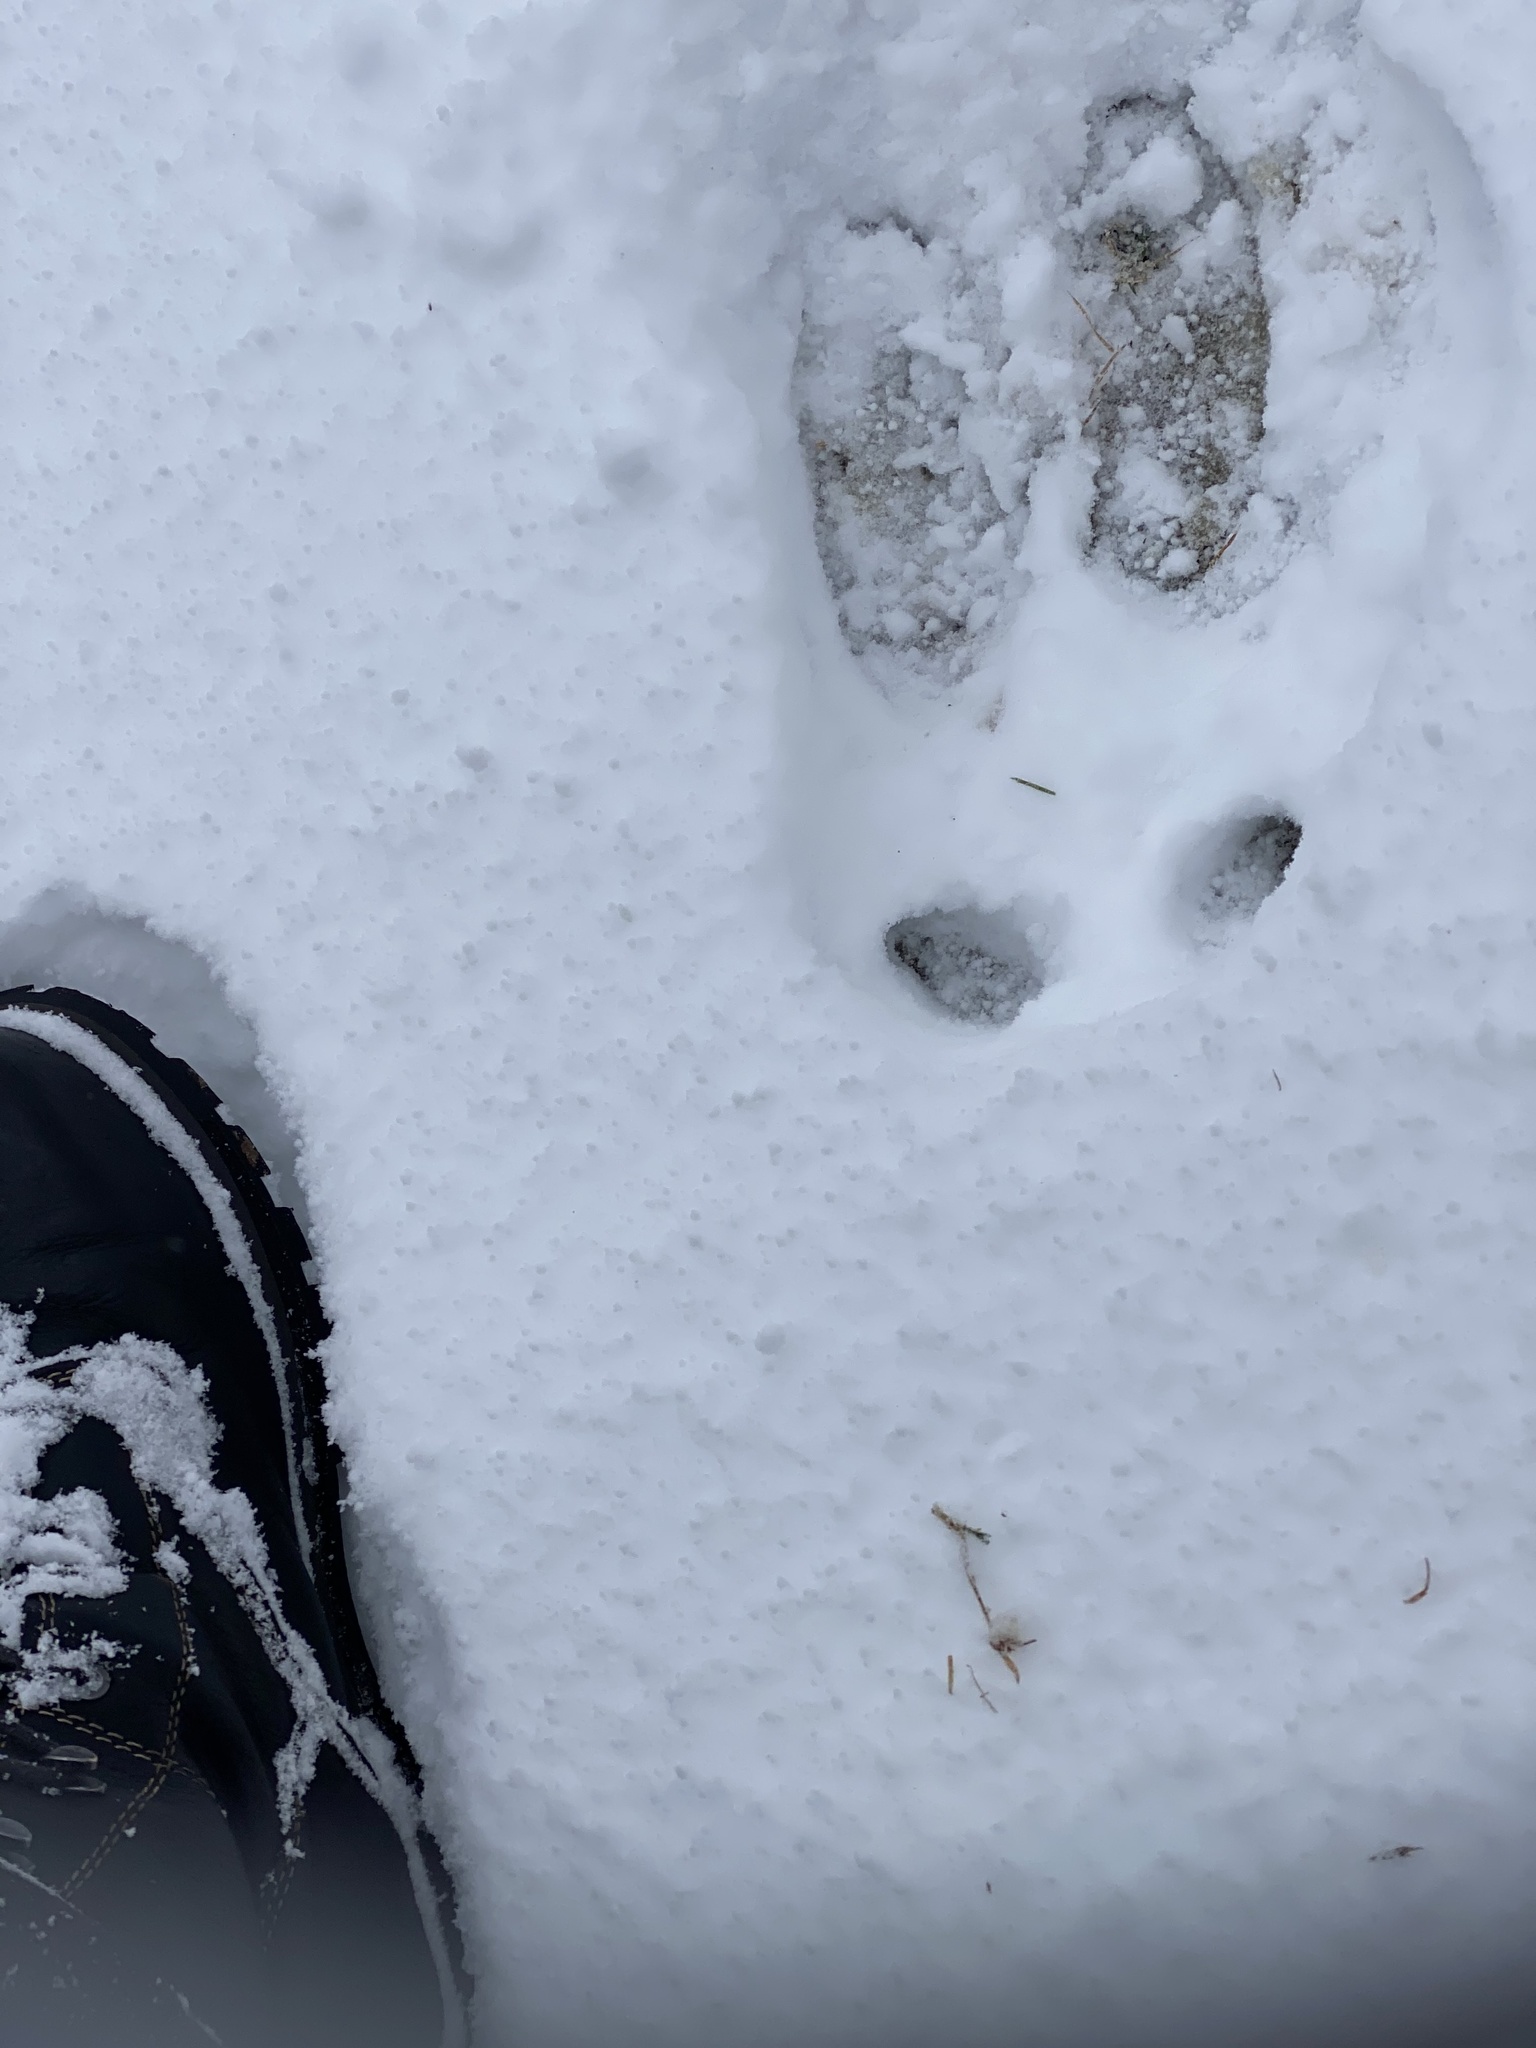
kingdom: Animalia
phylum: Chordata
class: Mammalia
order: Artiodactyla
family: Cervidae
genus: Alces
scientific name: Alces alces
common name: Moose
